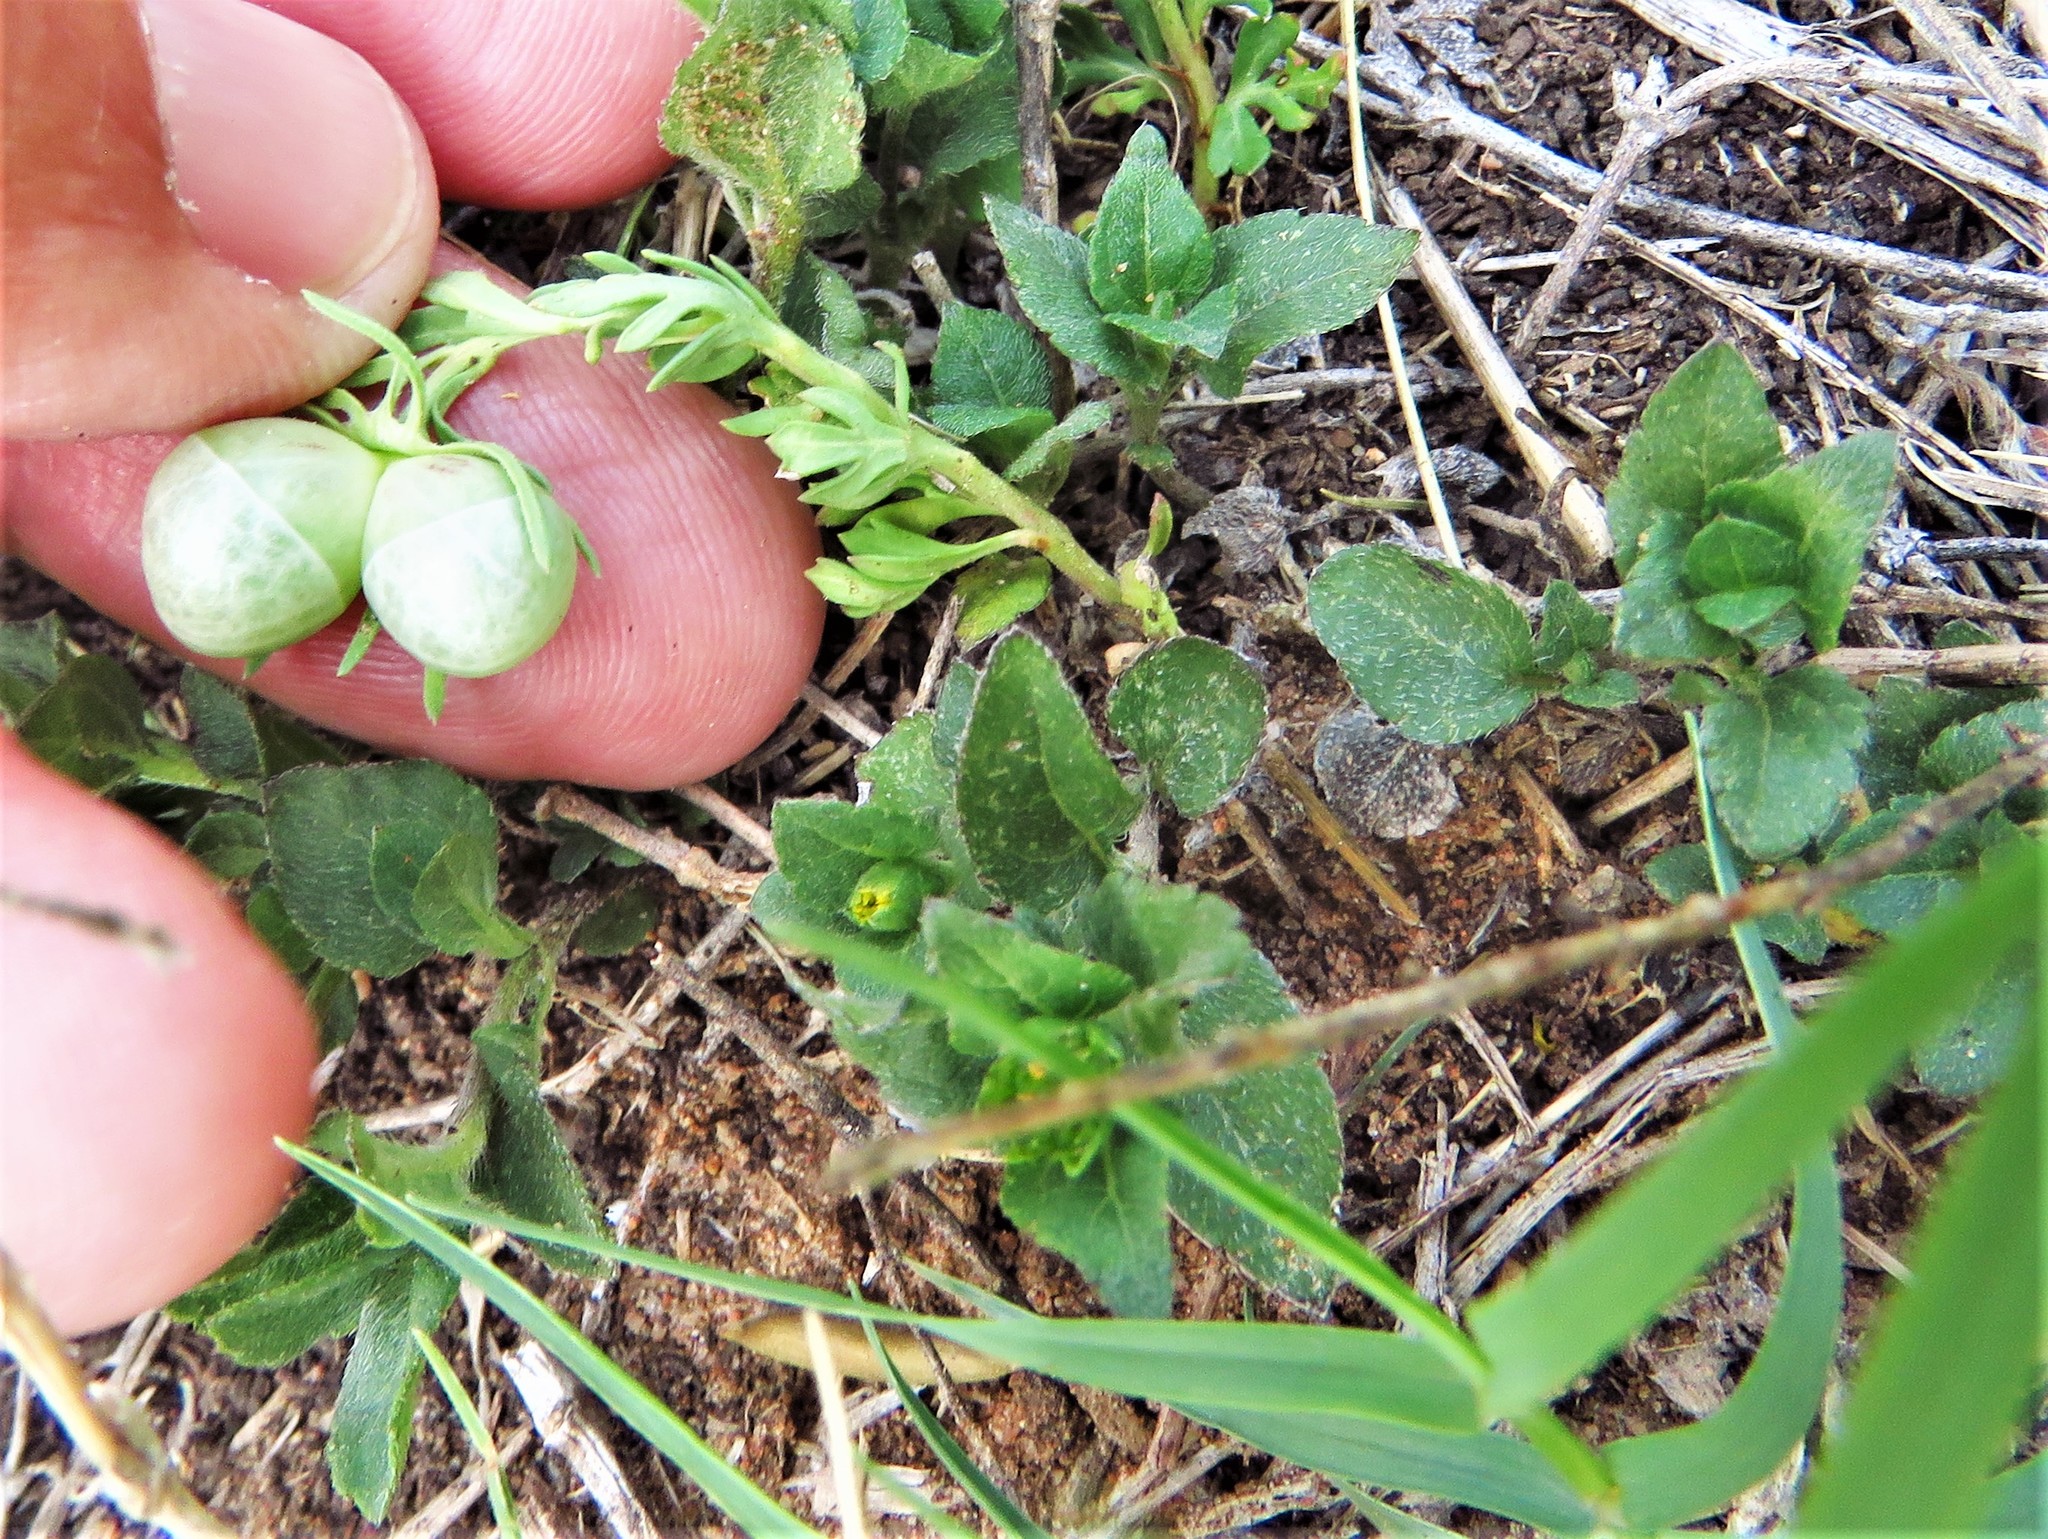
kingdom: Plantae
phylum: Tracheophyta
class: Magnoliopsida
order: Lamiales
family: Oleaceae
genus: Menodora
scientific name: Menodora heterophylla
